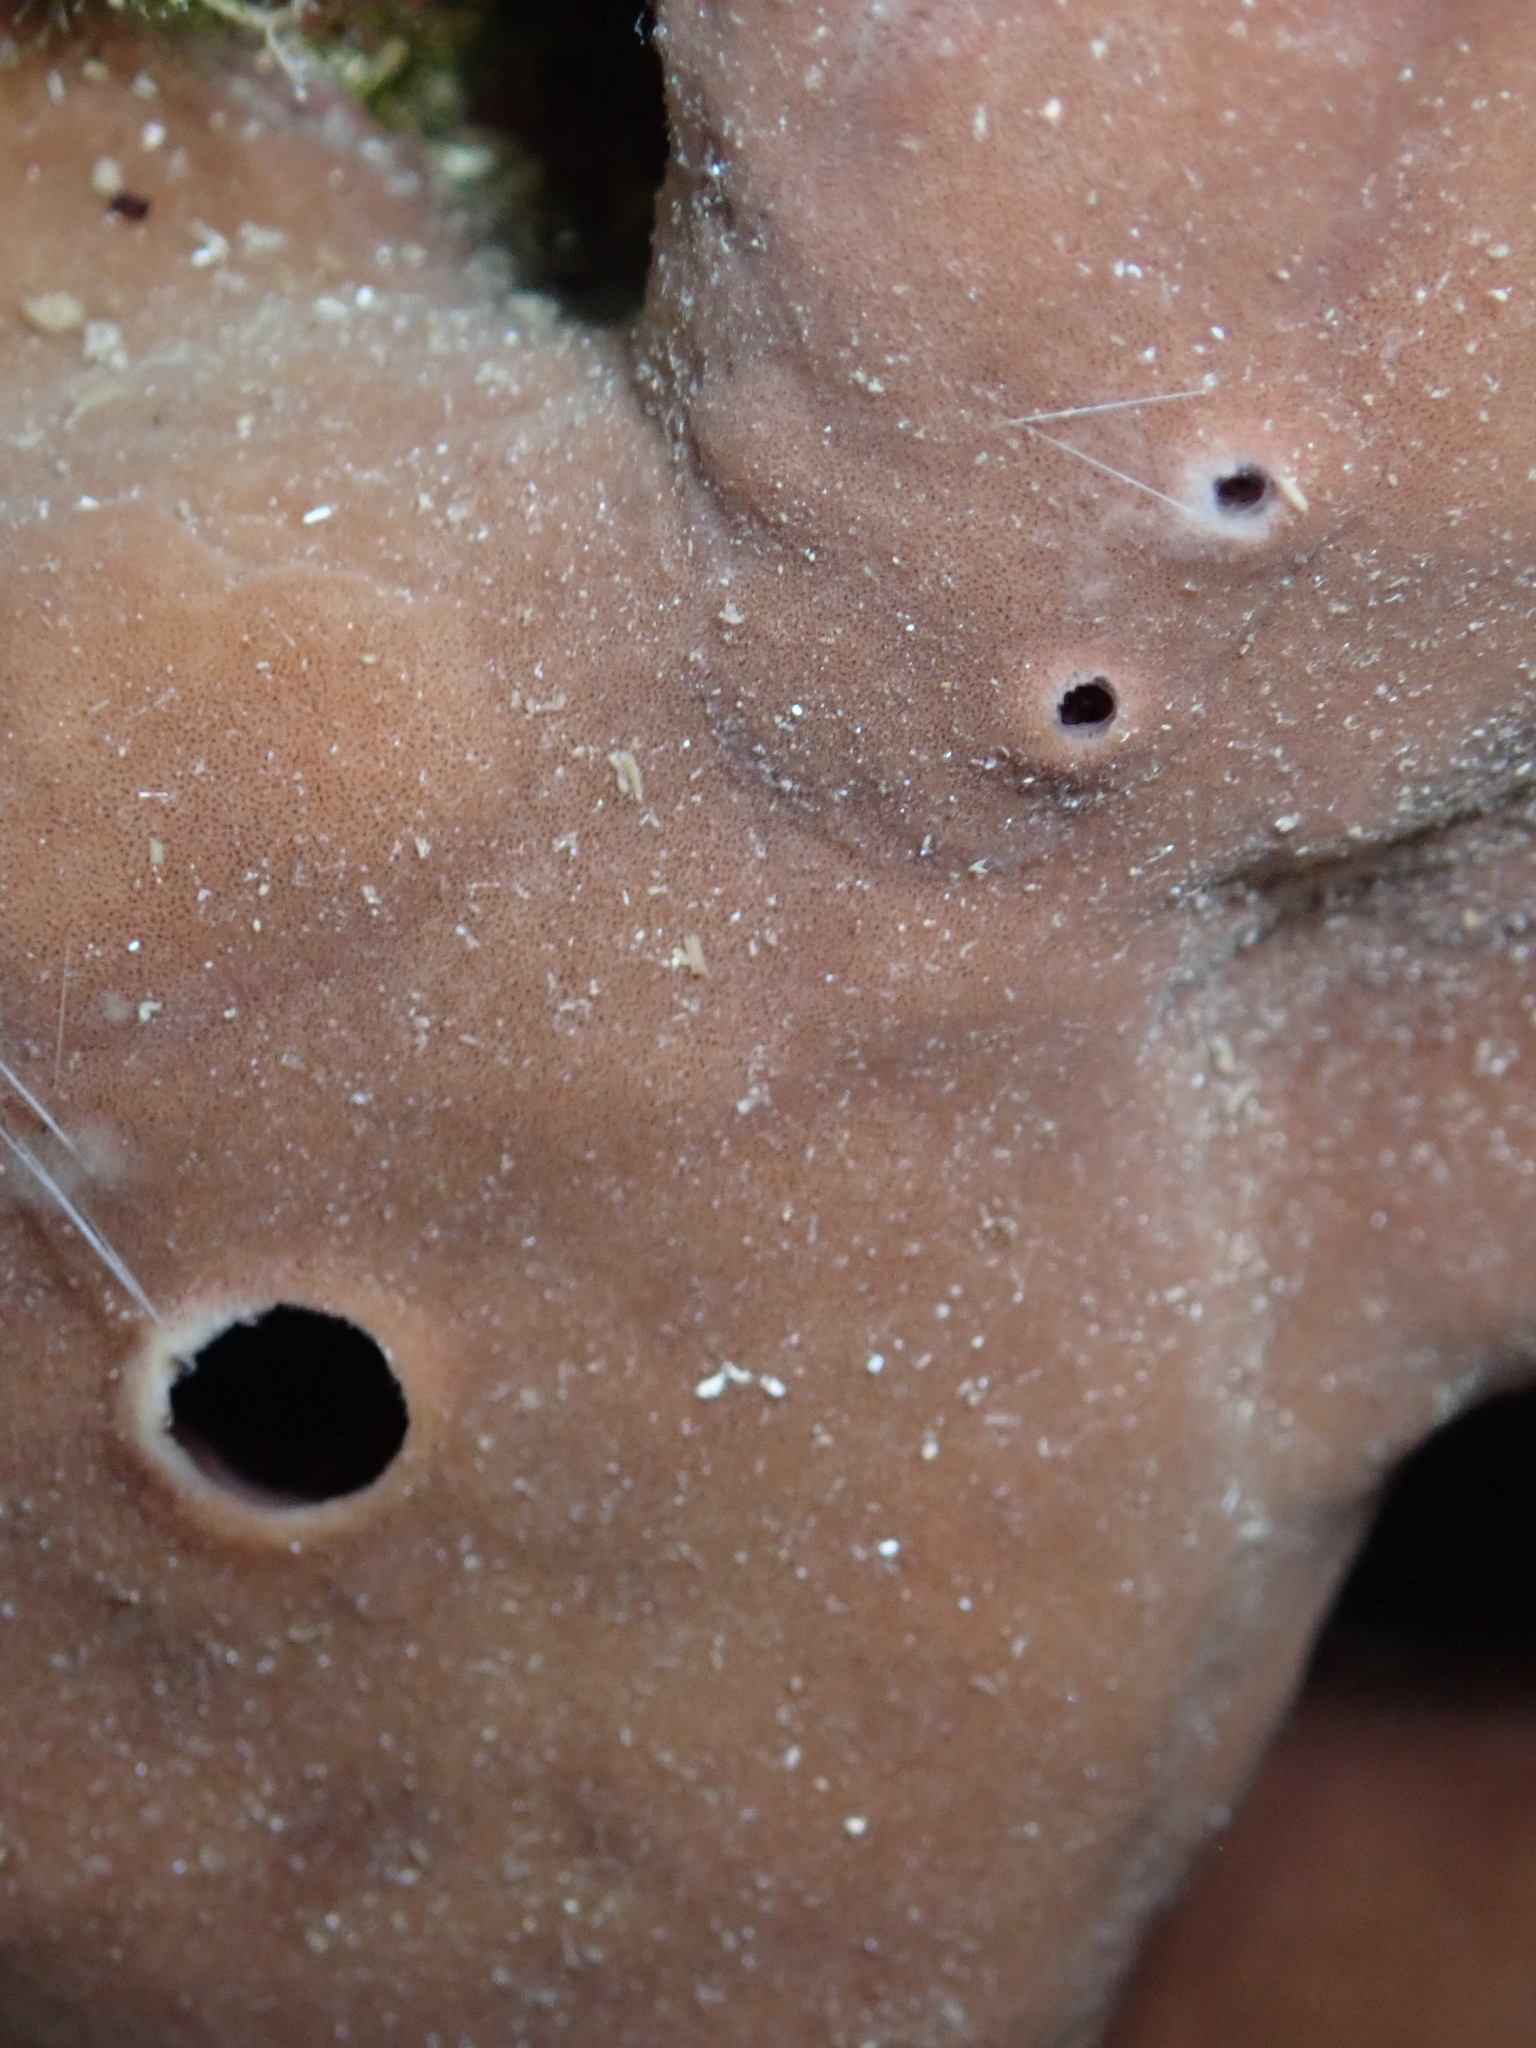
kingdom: Animalia
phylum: Porifera
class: Demospongiae
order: Haplosclerida
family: Petrosiidae
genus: Petrosia
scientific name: Petrosia ficiformis
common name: Stony sponge
